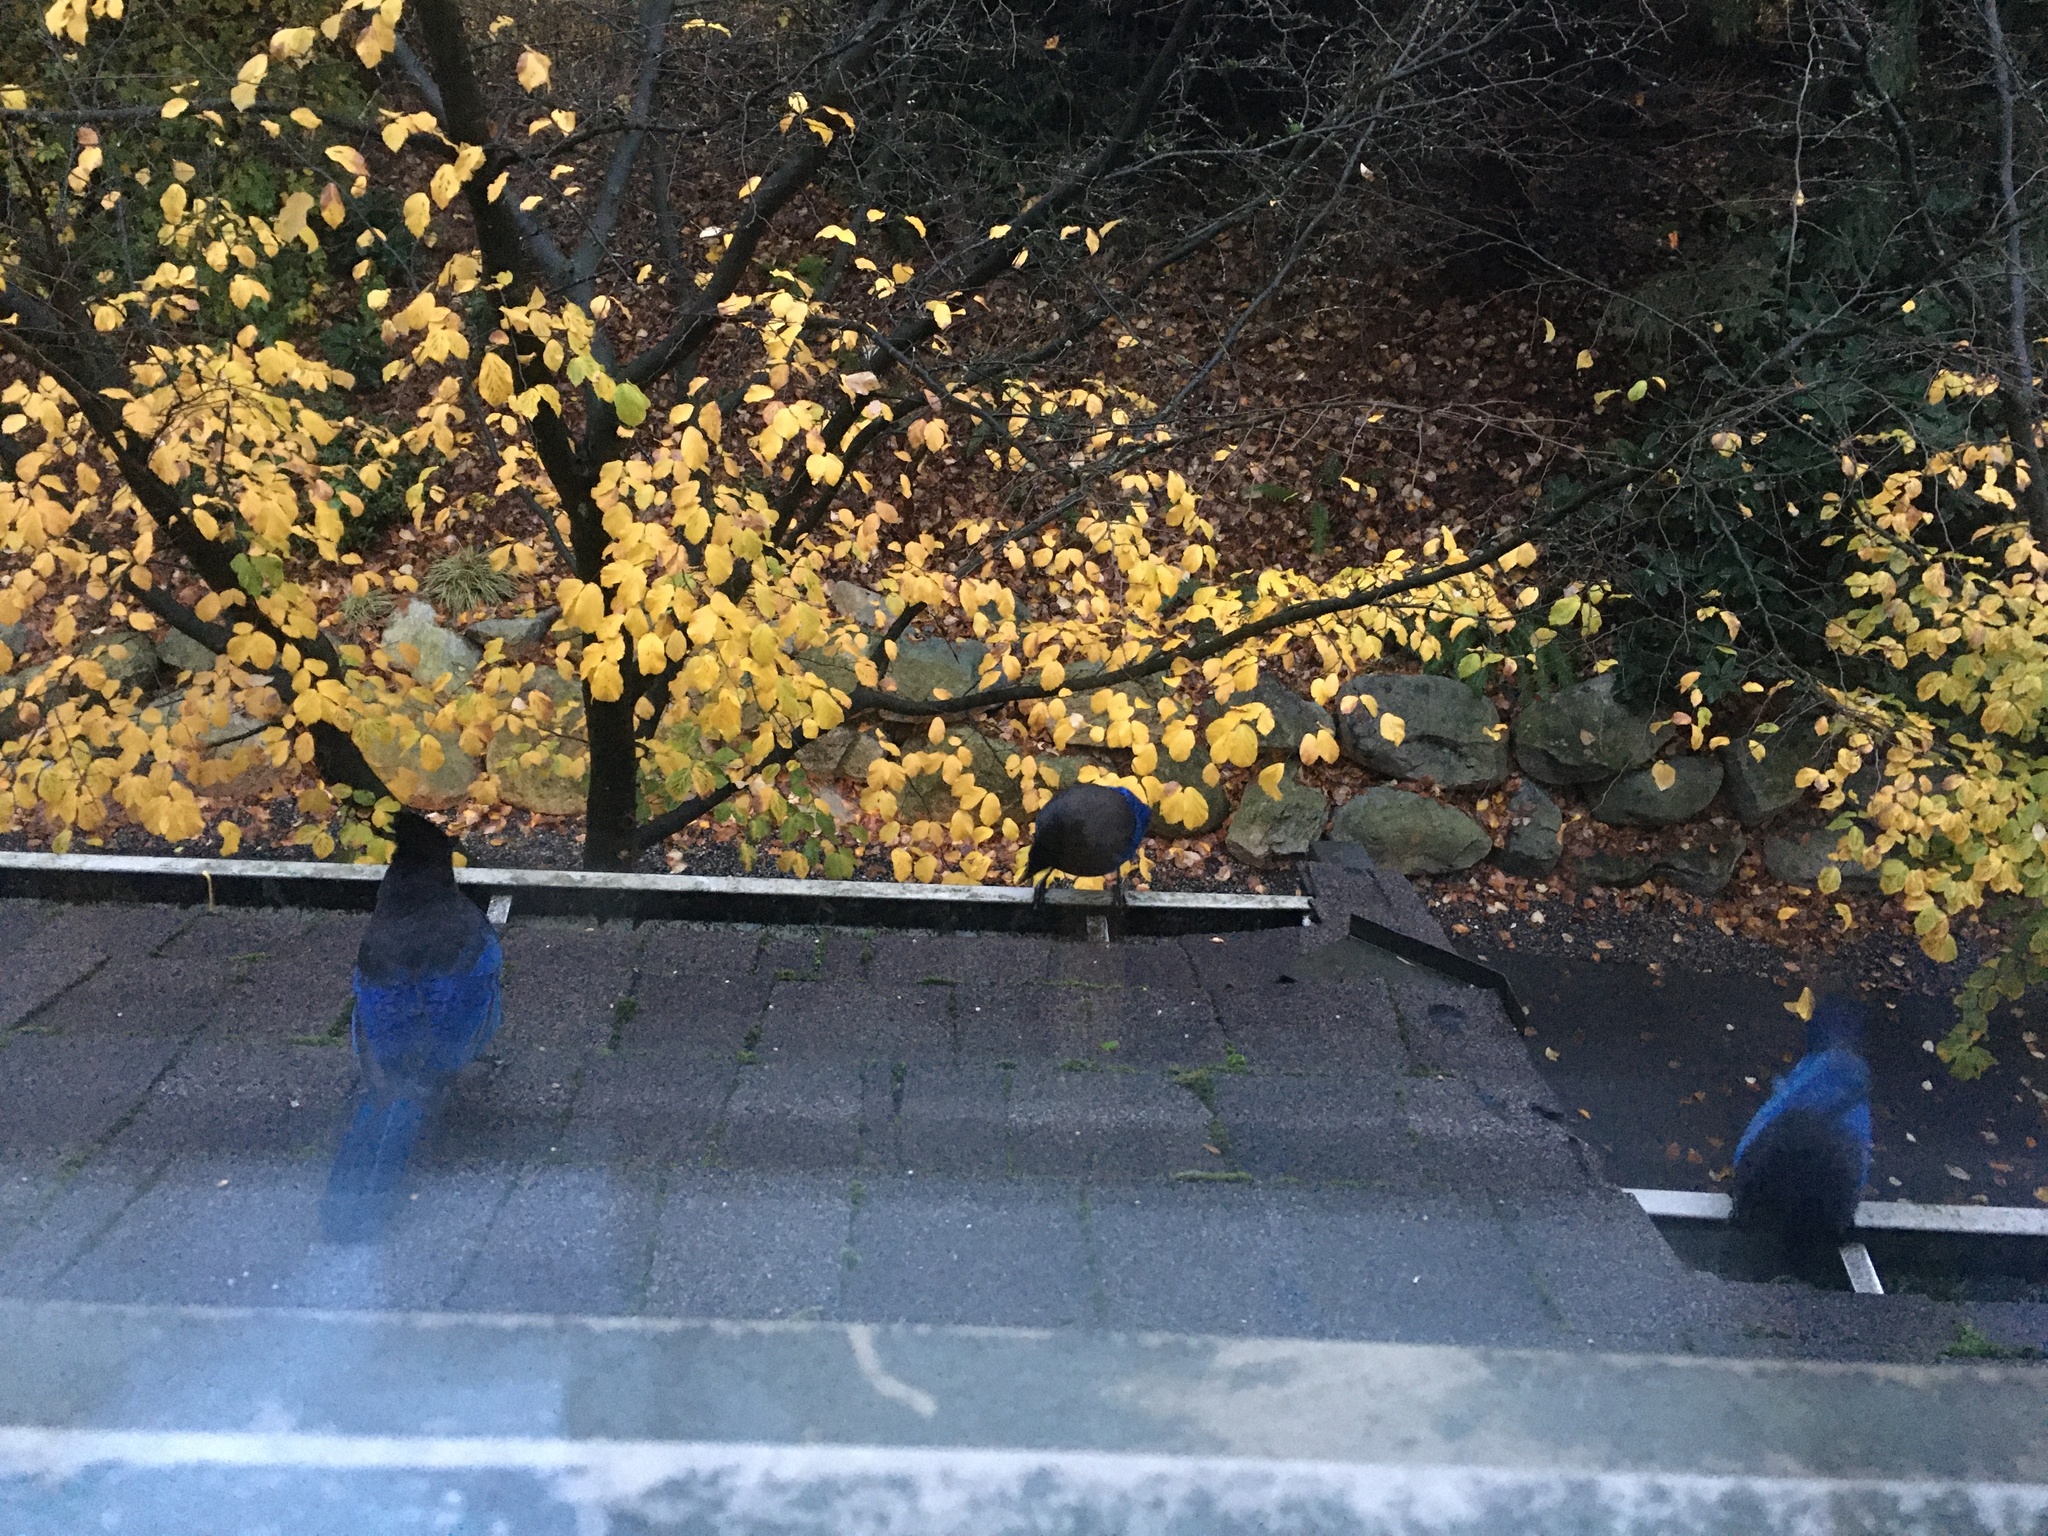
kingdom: Animalia
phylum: Chordata
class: Aves
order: Passeriformes
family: Corvidae
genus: Cyanocitta
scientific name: Cyanocitta stelleri
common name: Steller's jay
